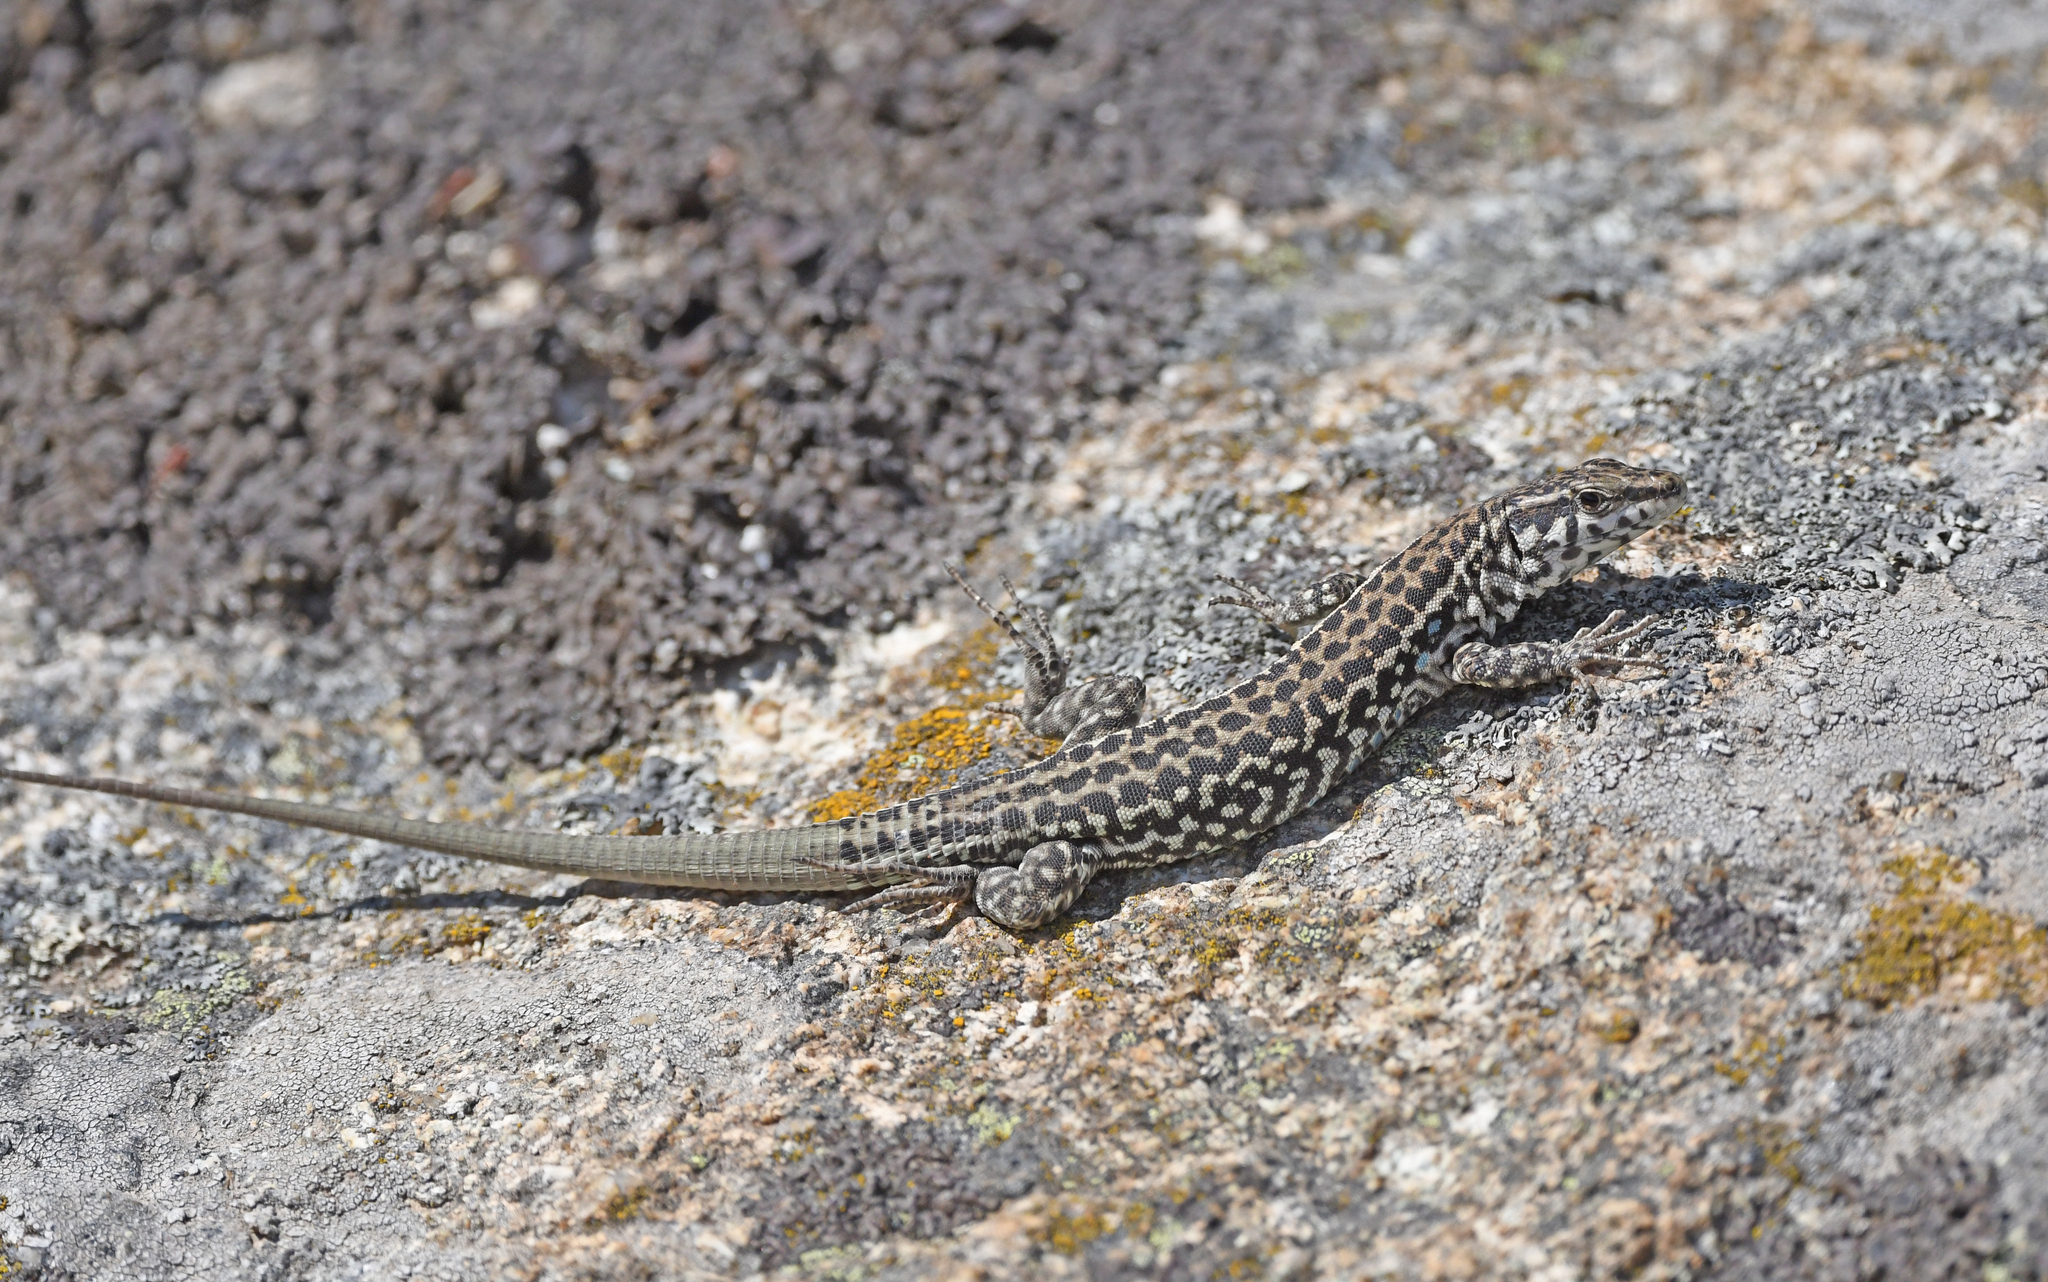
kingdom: Animalia
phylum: Chordata
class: Squamata
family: Lacertidae
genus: Podarcis
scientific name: Podarcis tiliguerta
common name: Tyrrhenian wall lizard
